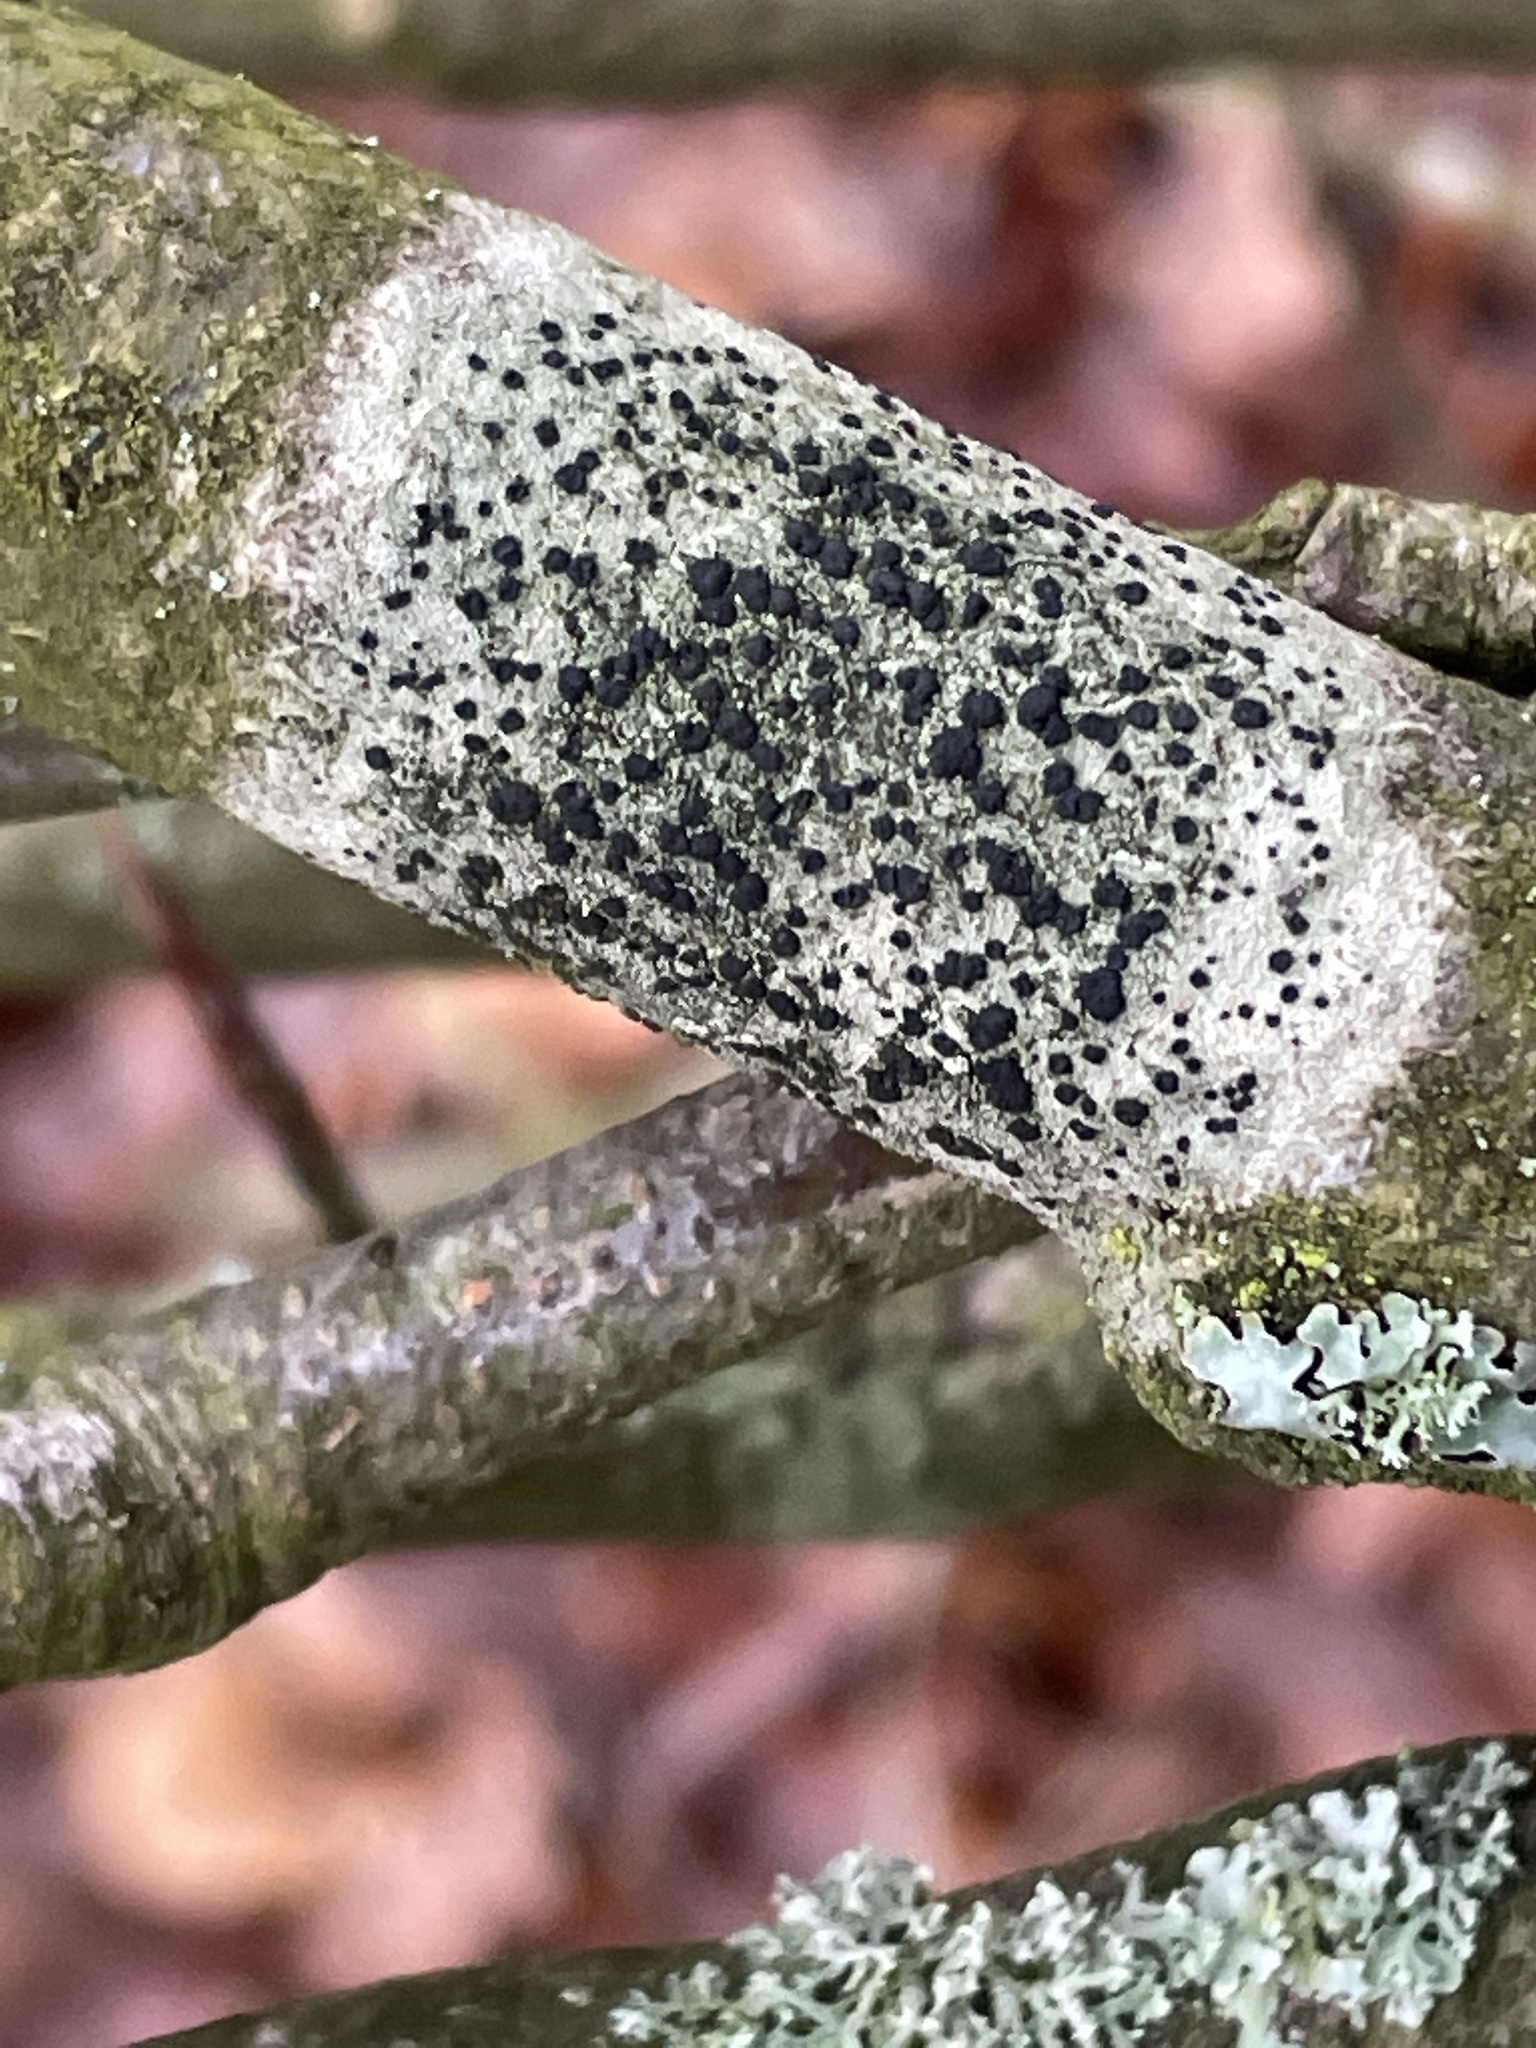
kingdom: Fungi
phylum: Ascomycota
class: Lecanoromycetes
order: Lecanorales
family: Lecanoraceae
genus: Lecidella
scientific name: Lecidella elaeochroma
